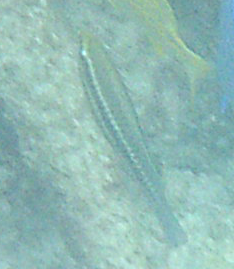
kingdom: Animalia
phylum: Chordata
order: Perciformes
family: Scaridae
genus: Scarus
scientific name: Scarus iseri
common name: Striped parrotfish
